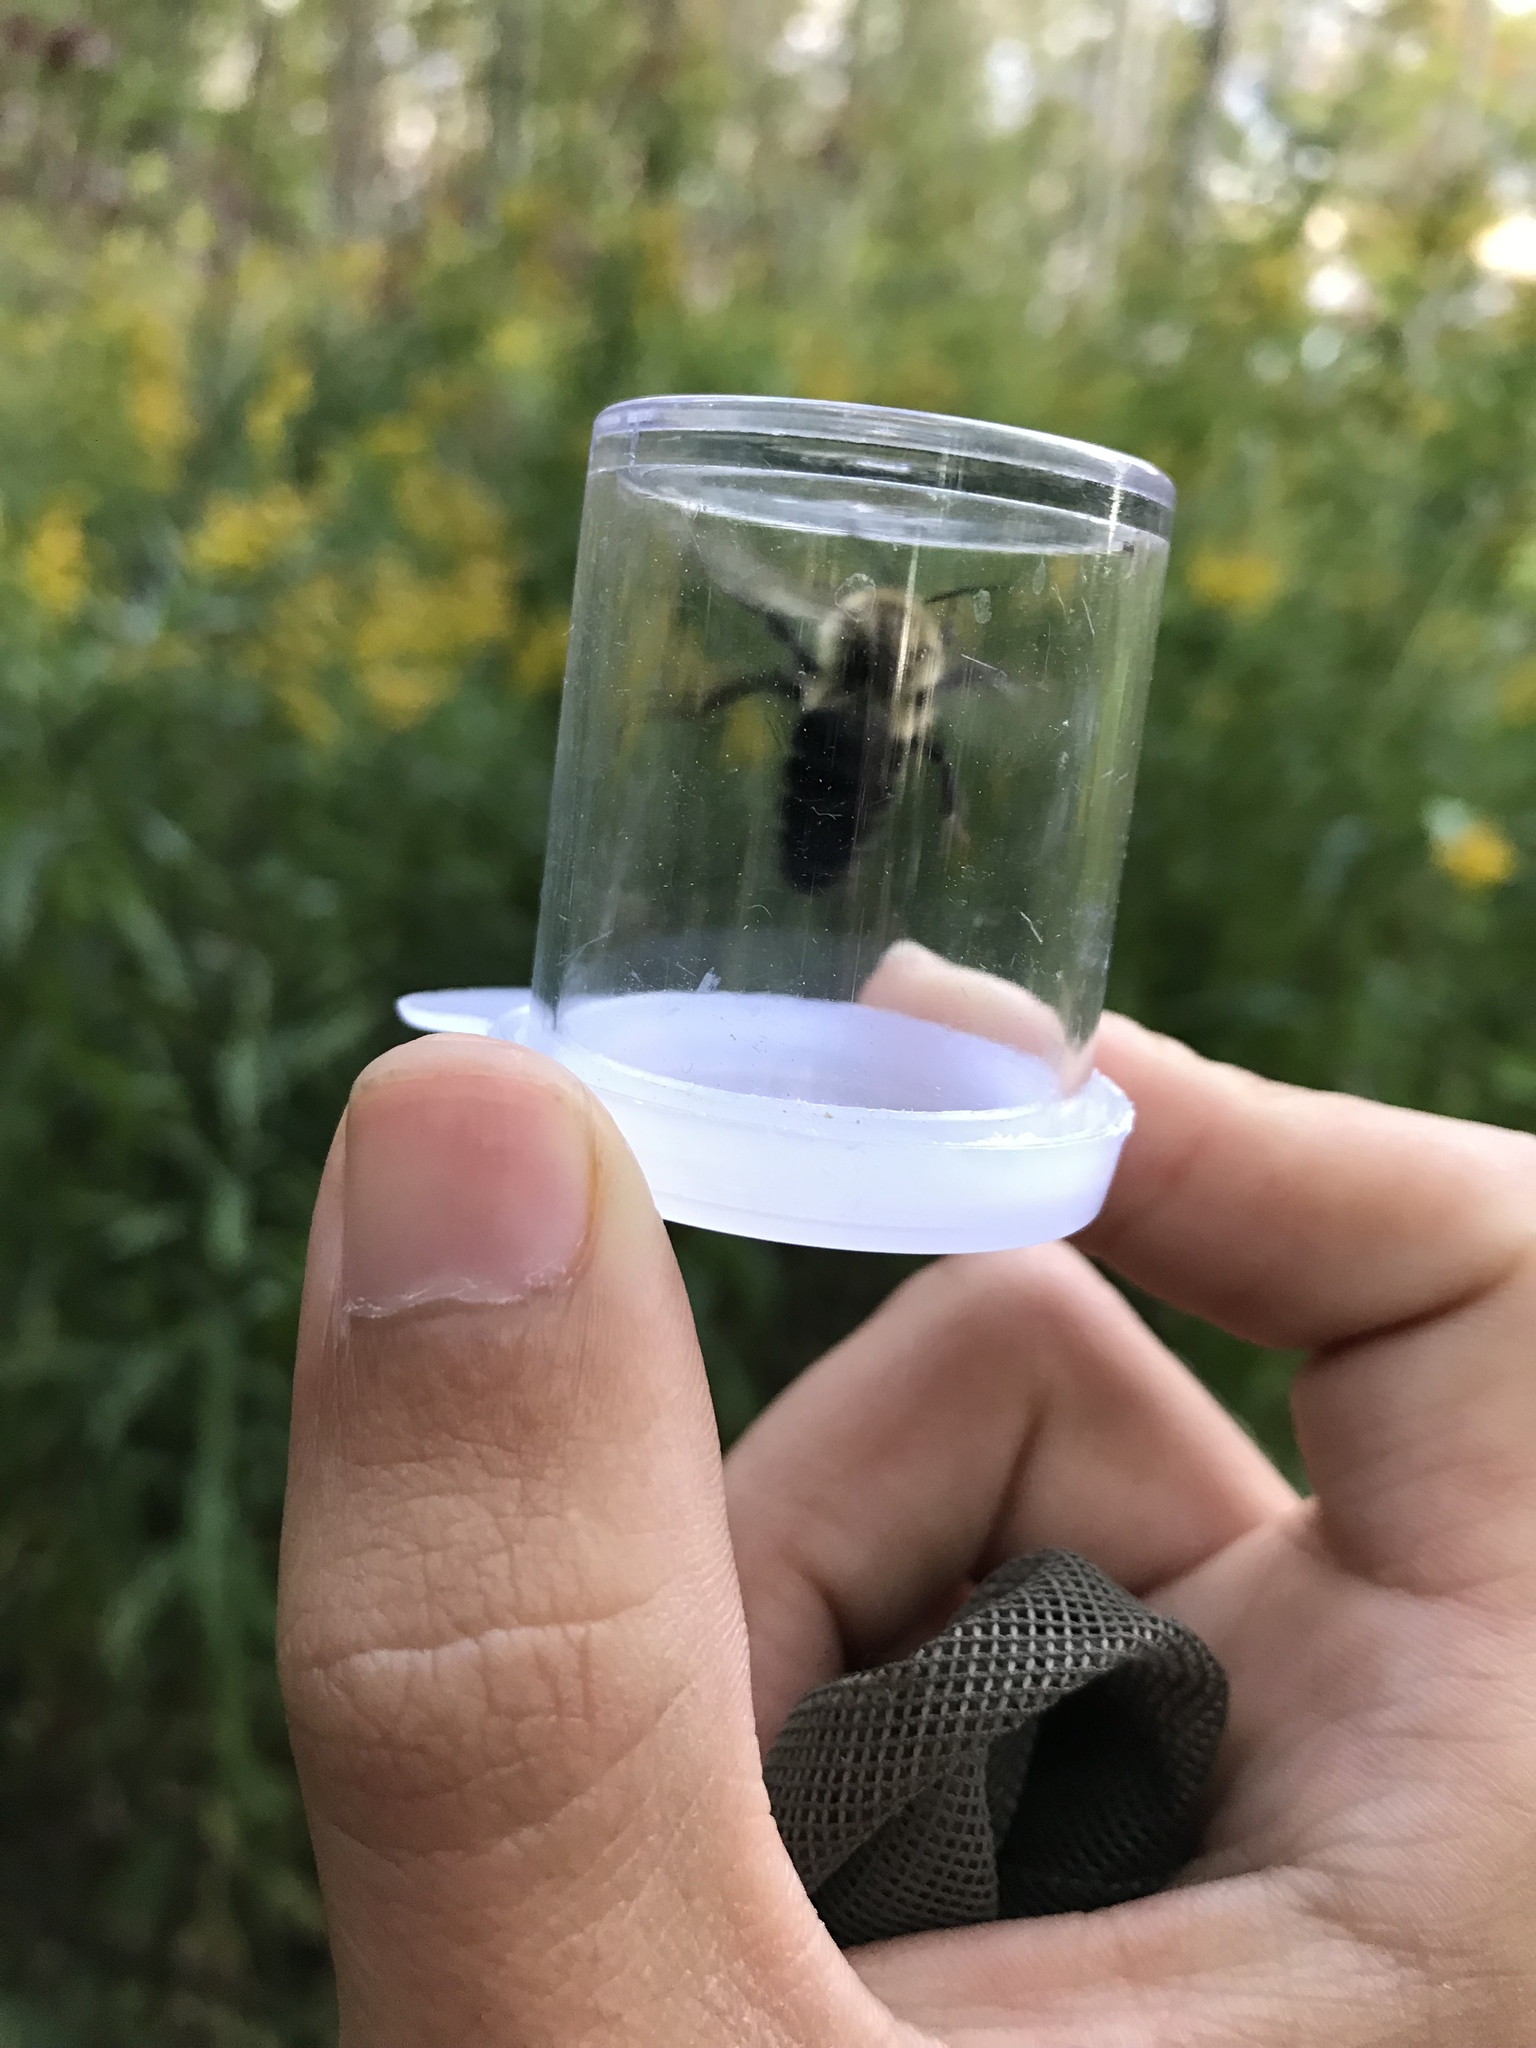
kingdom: Animalia
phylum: Arthropoda
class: Insecta
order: Hymenoptera
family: Apidae
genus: Bombus
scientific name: Bombus impatiens
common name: Common eastern bumble bee
